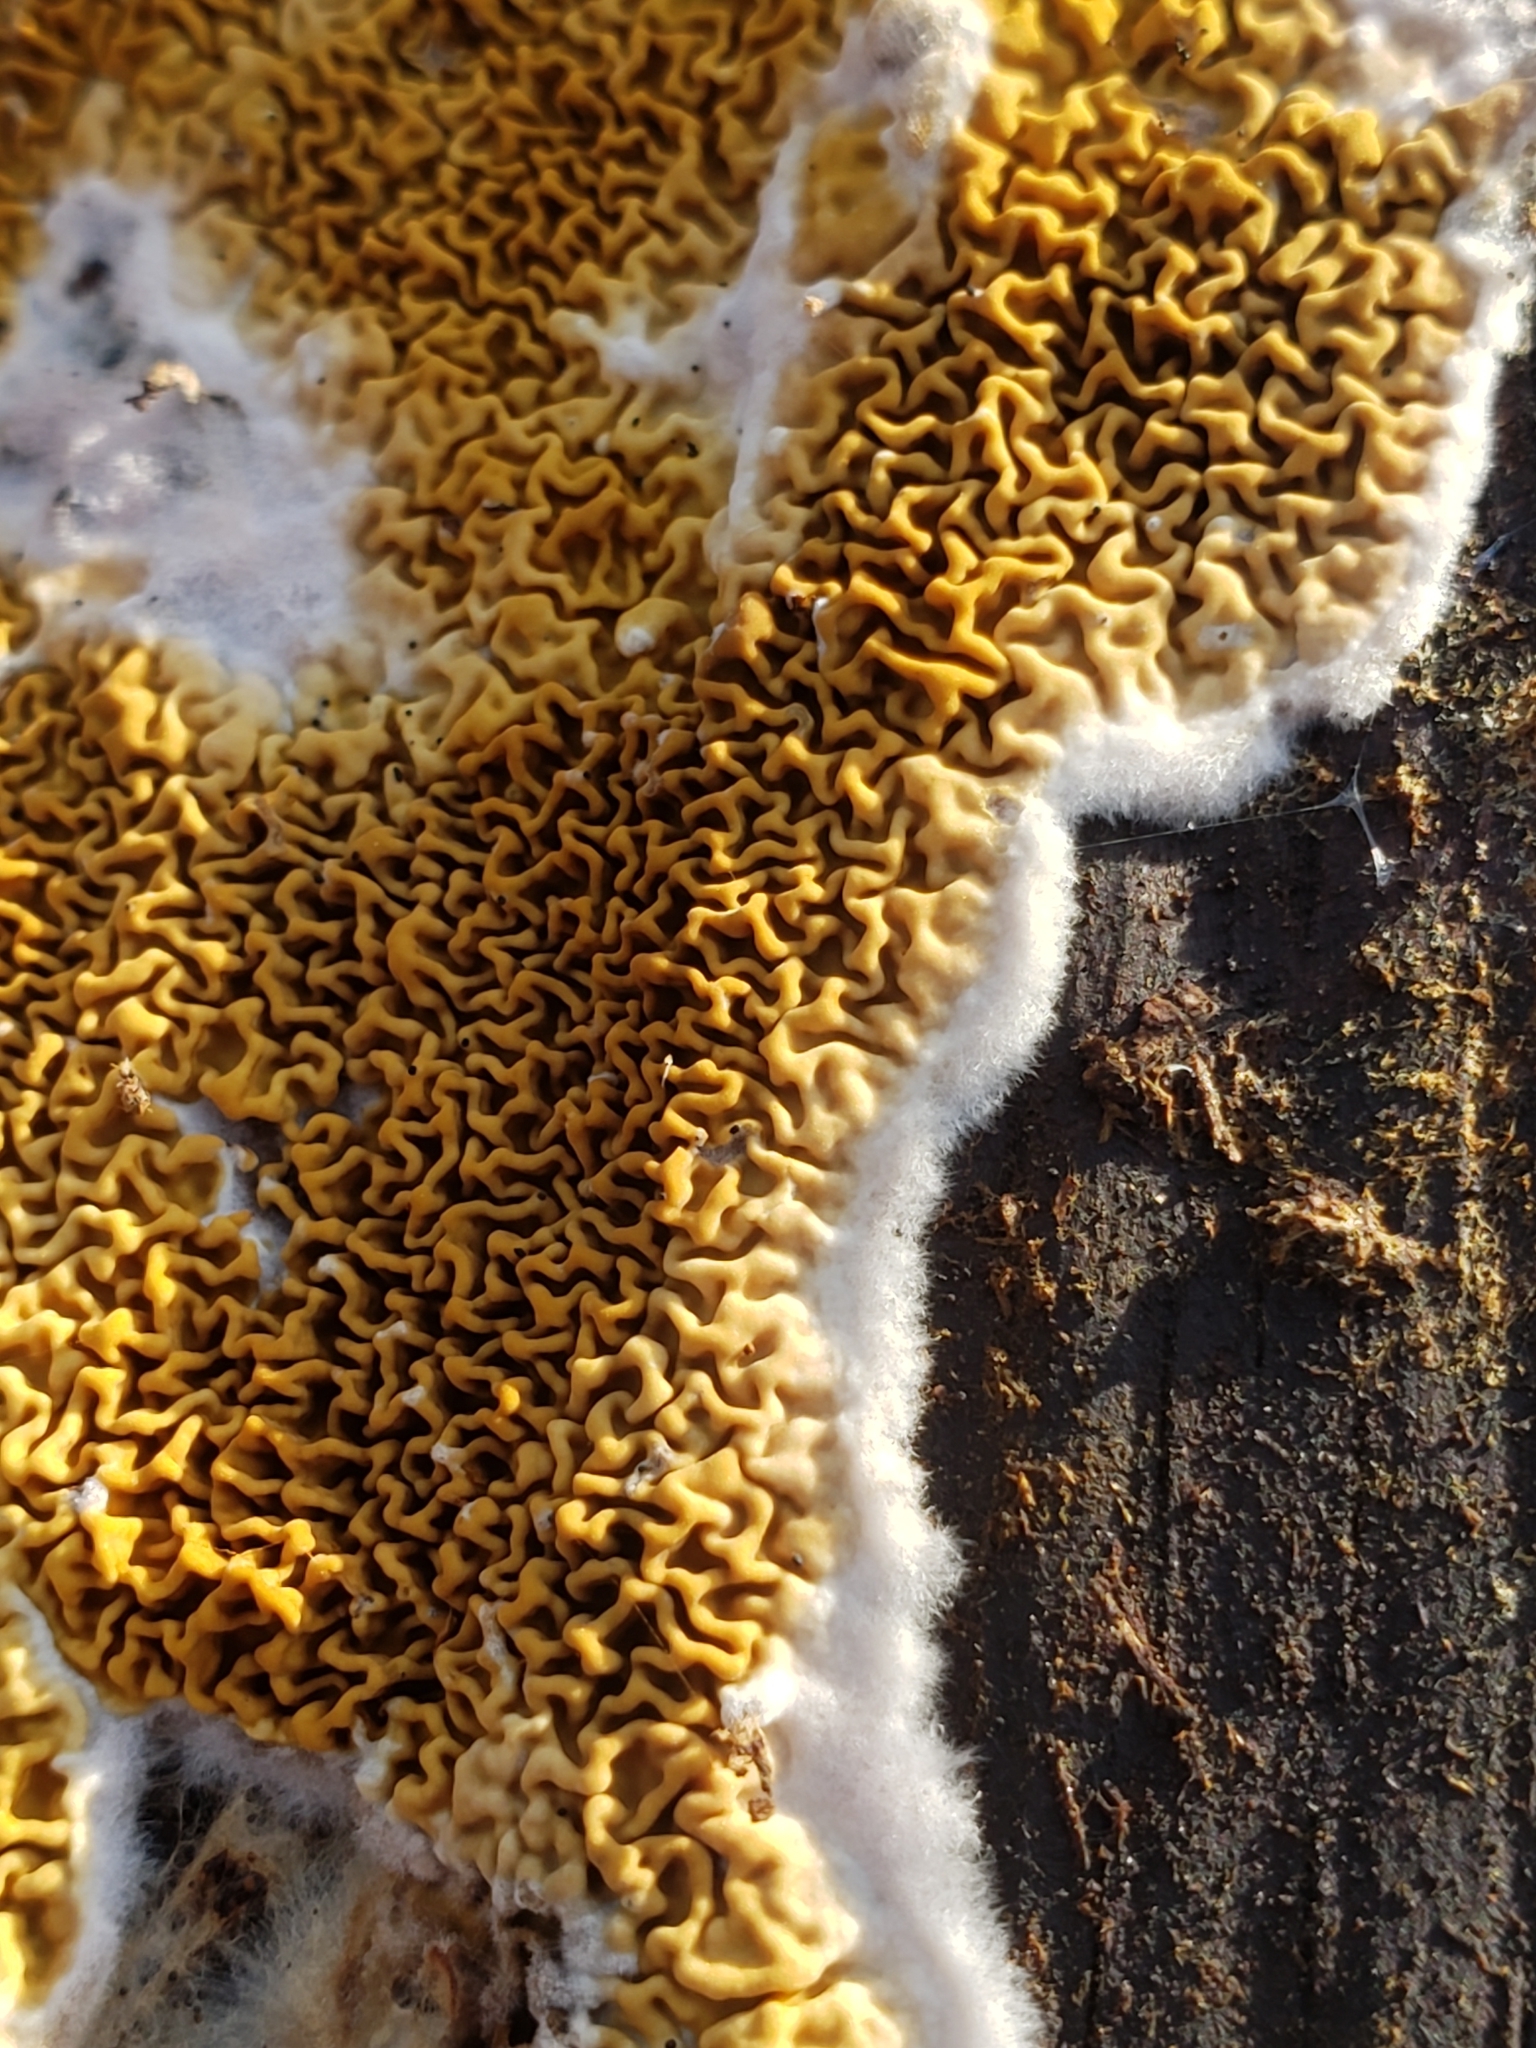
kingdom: Fungi
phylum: Basidiomycota
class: Agaricomycetes
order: Boletales
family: Serpulaceae
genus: Serpula
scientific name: Serpula himantioides
